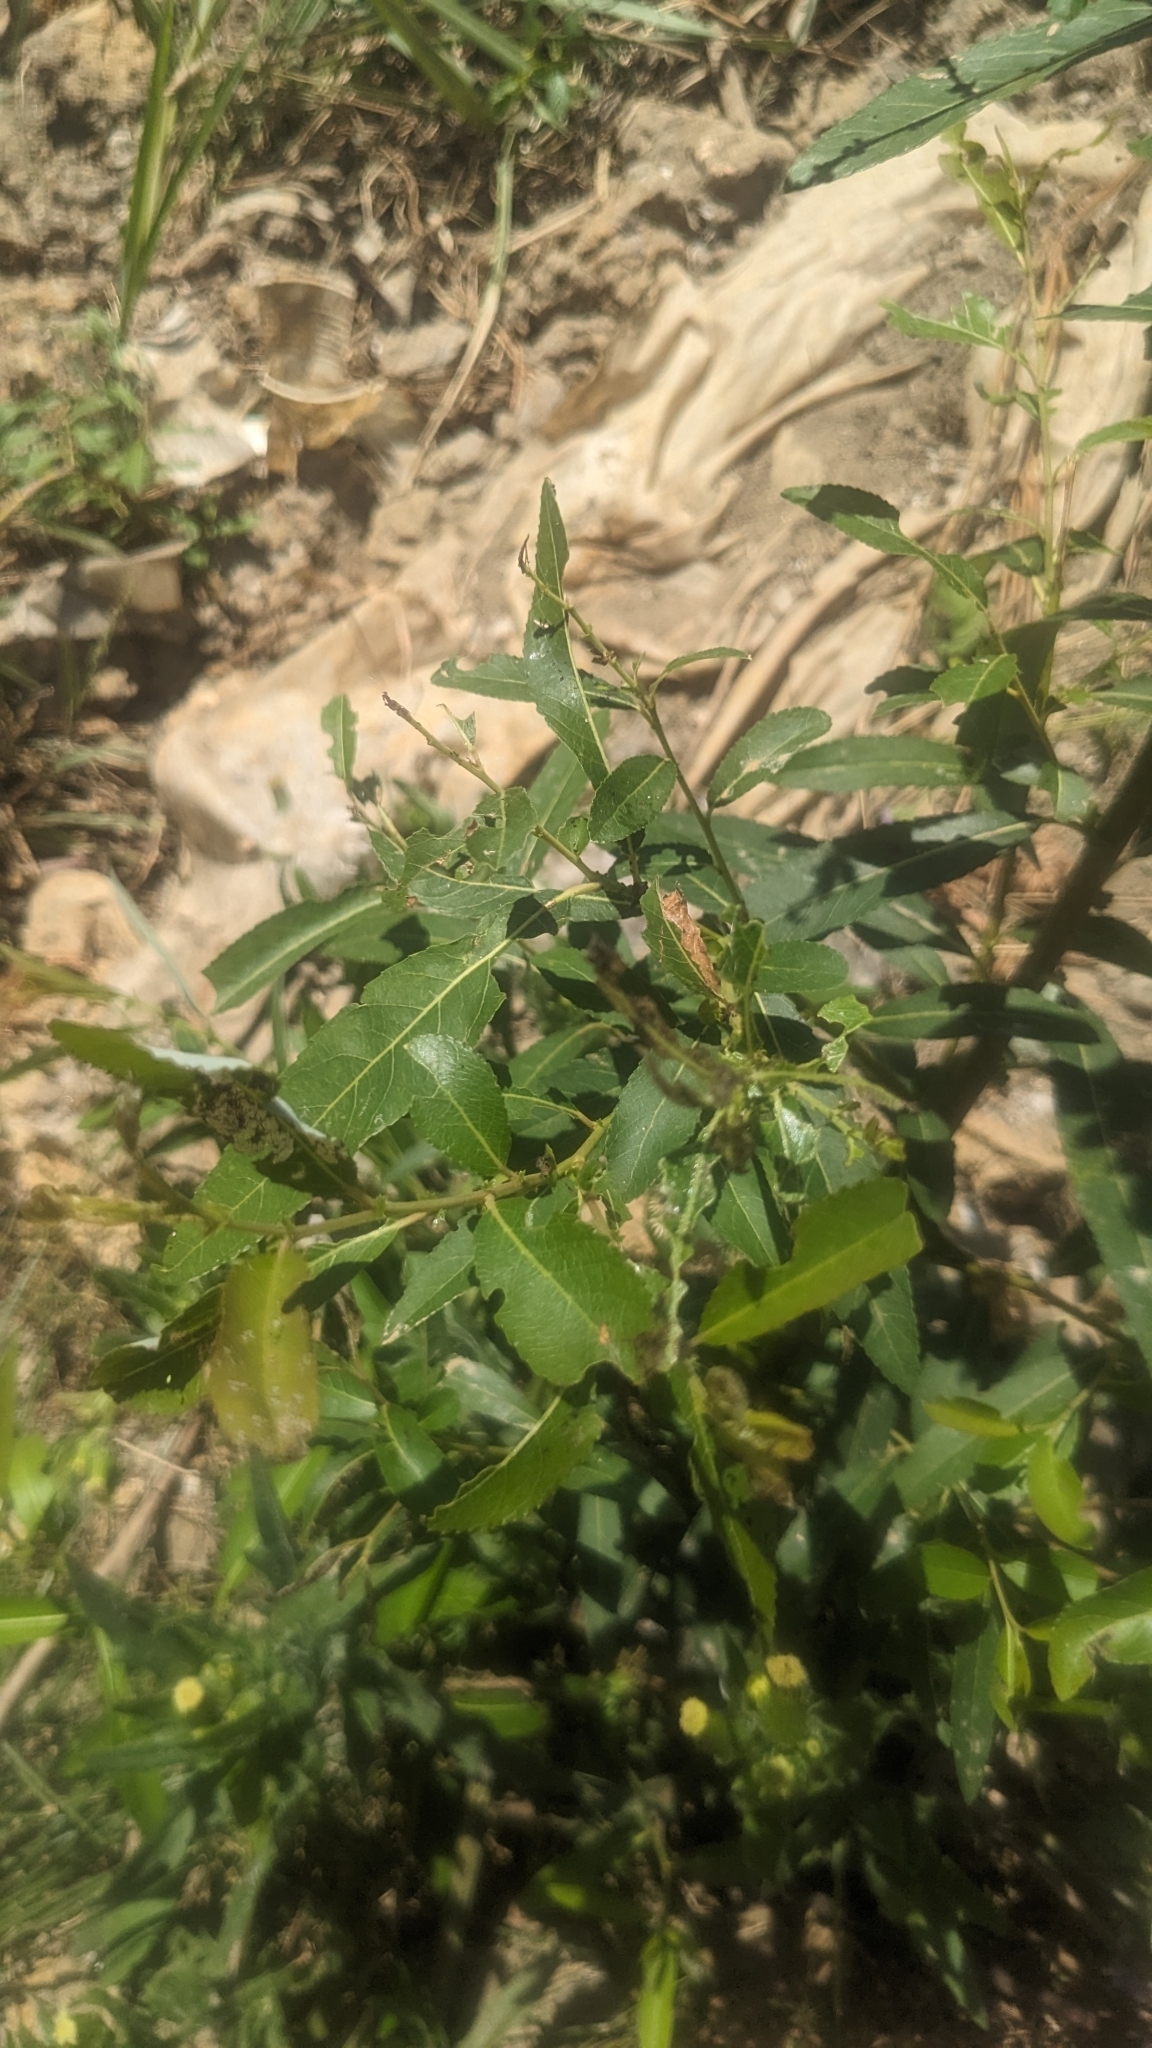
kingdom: Plantae
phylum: Tracheophyta
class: Magnoliopsida
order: Malpighiales
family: Salicaceae
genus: Salix
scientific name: Salix mesnyi
